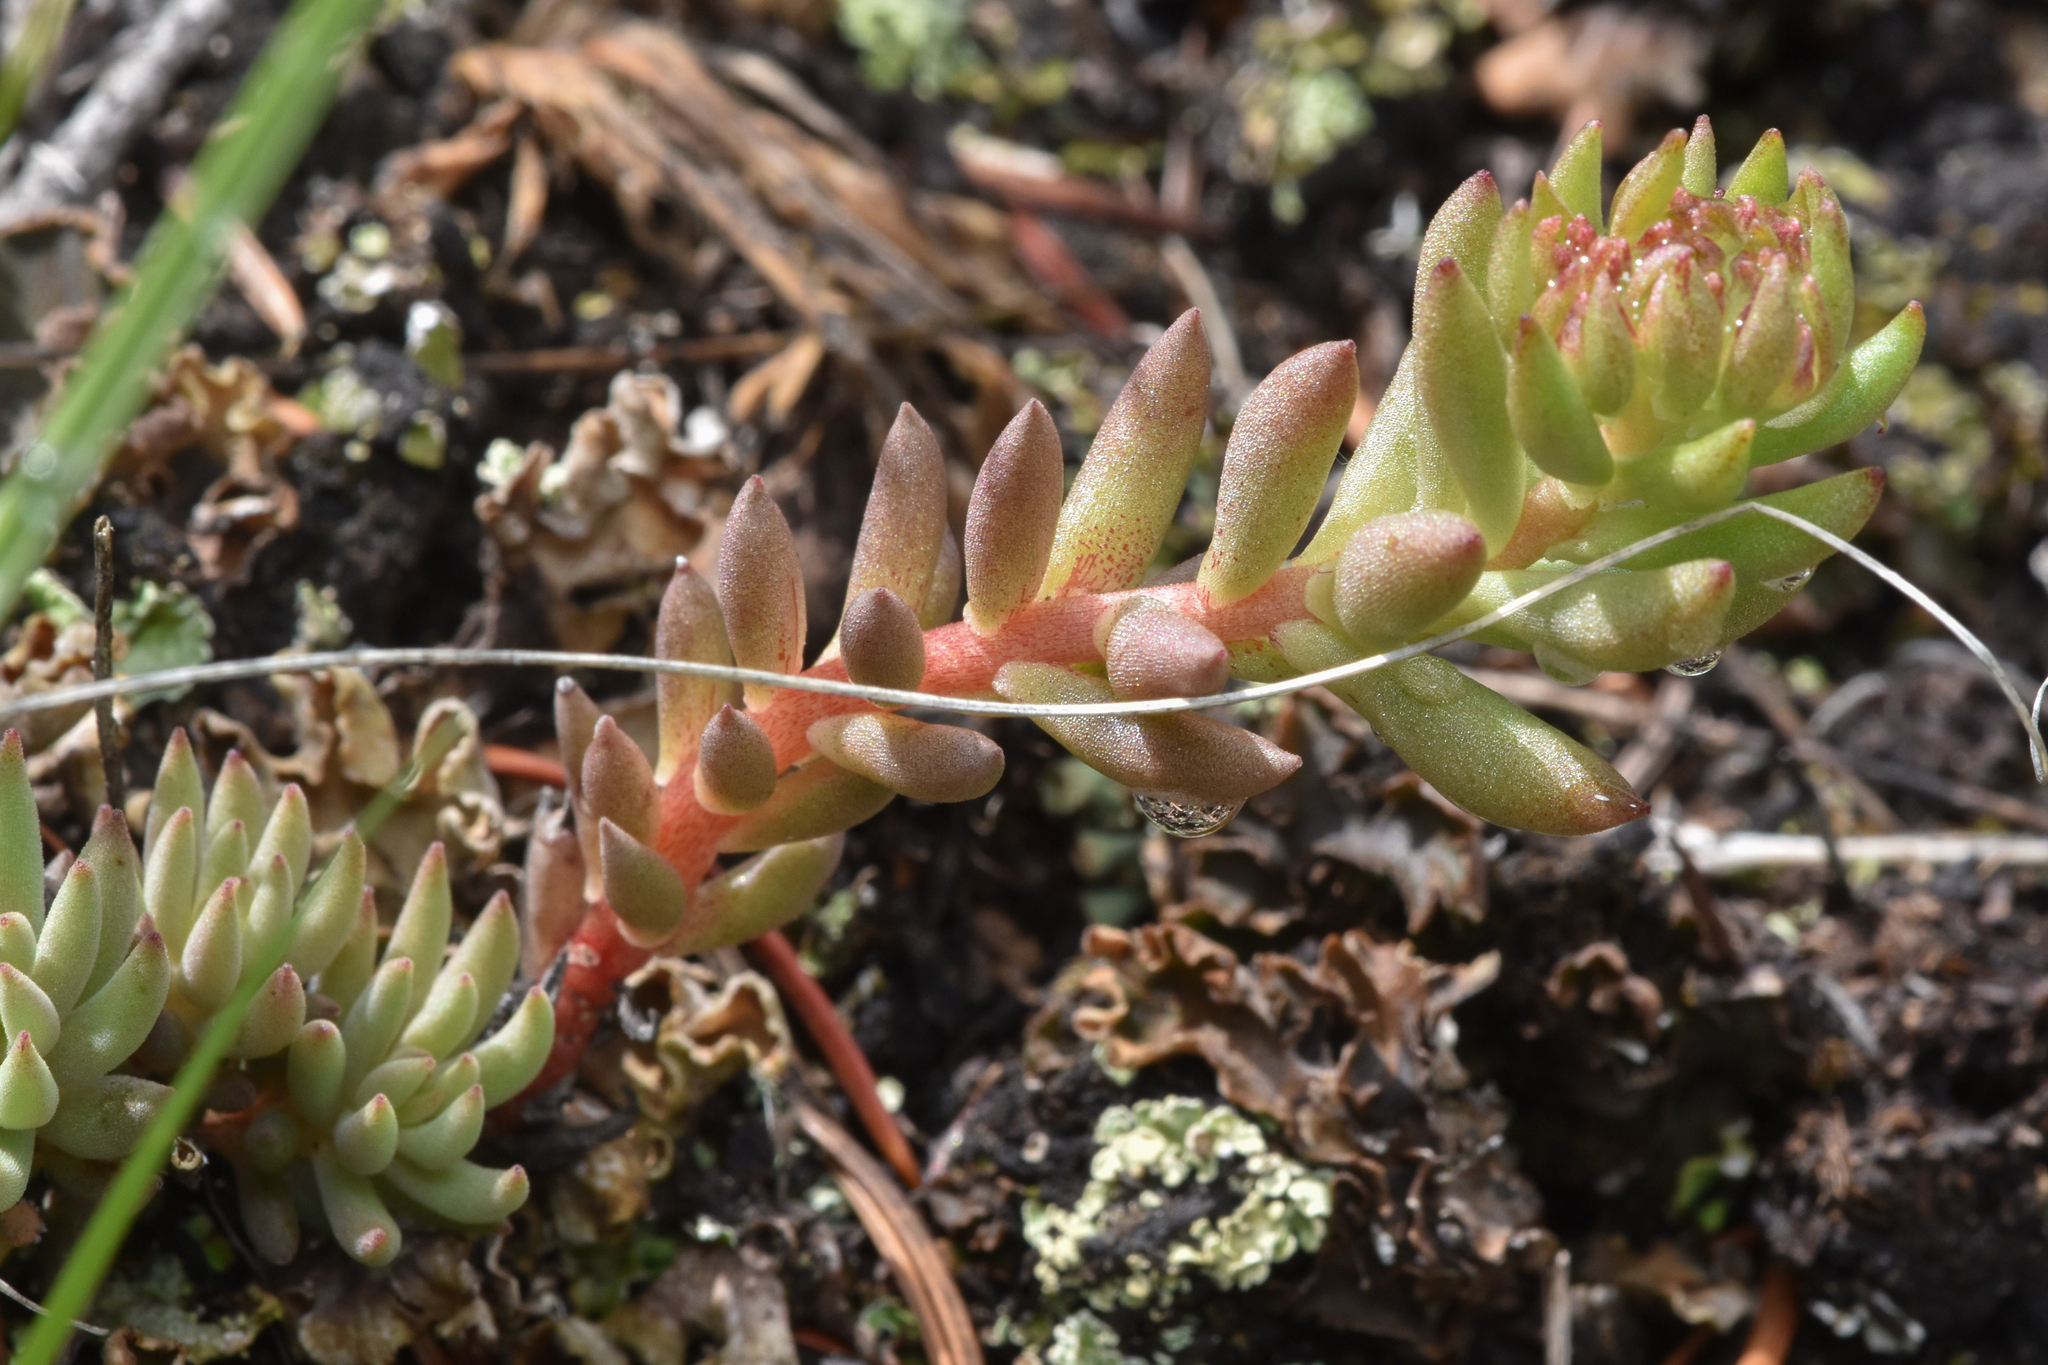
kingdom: Plantae
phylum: Tracheophyta
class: Magnoliopsida
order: Saxifragales
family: Crassulaceae
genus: Sedum
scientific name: Sedum lanceolatum
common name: Common stonecrop
